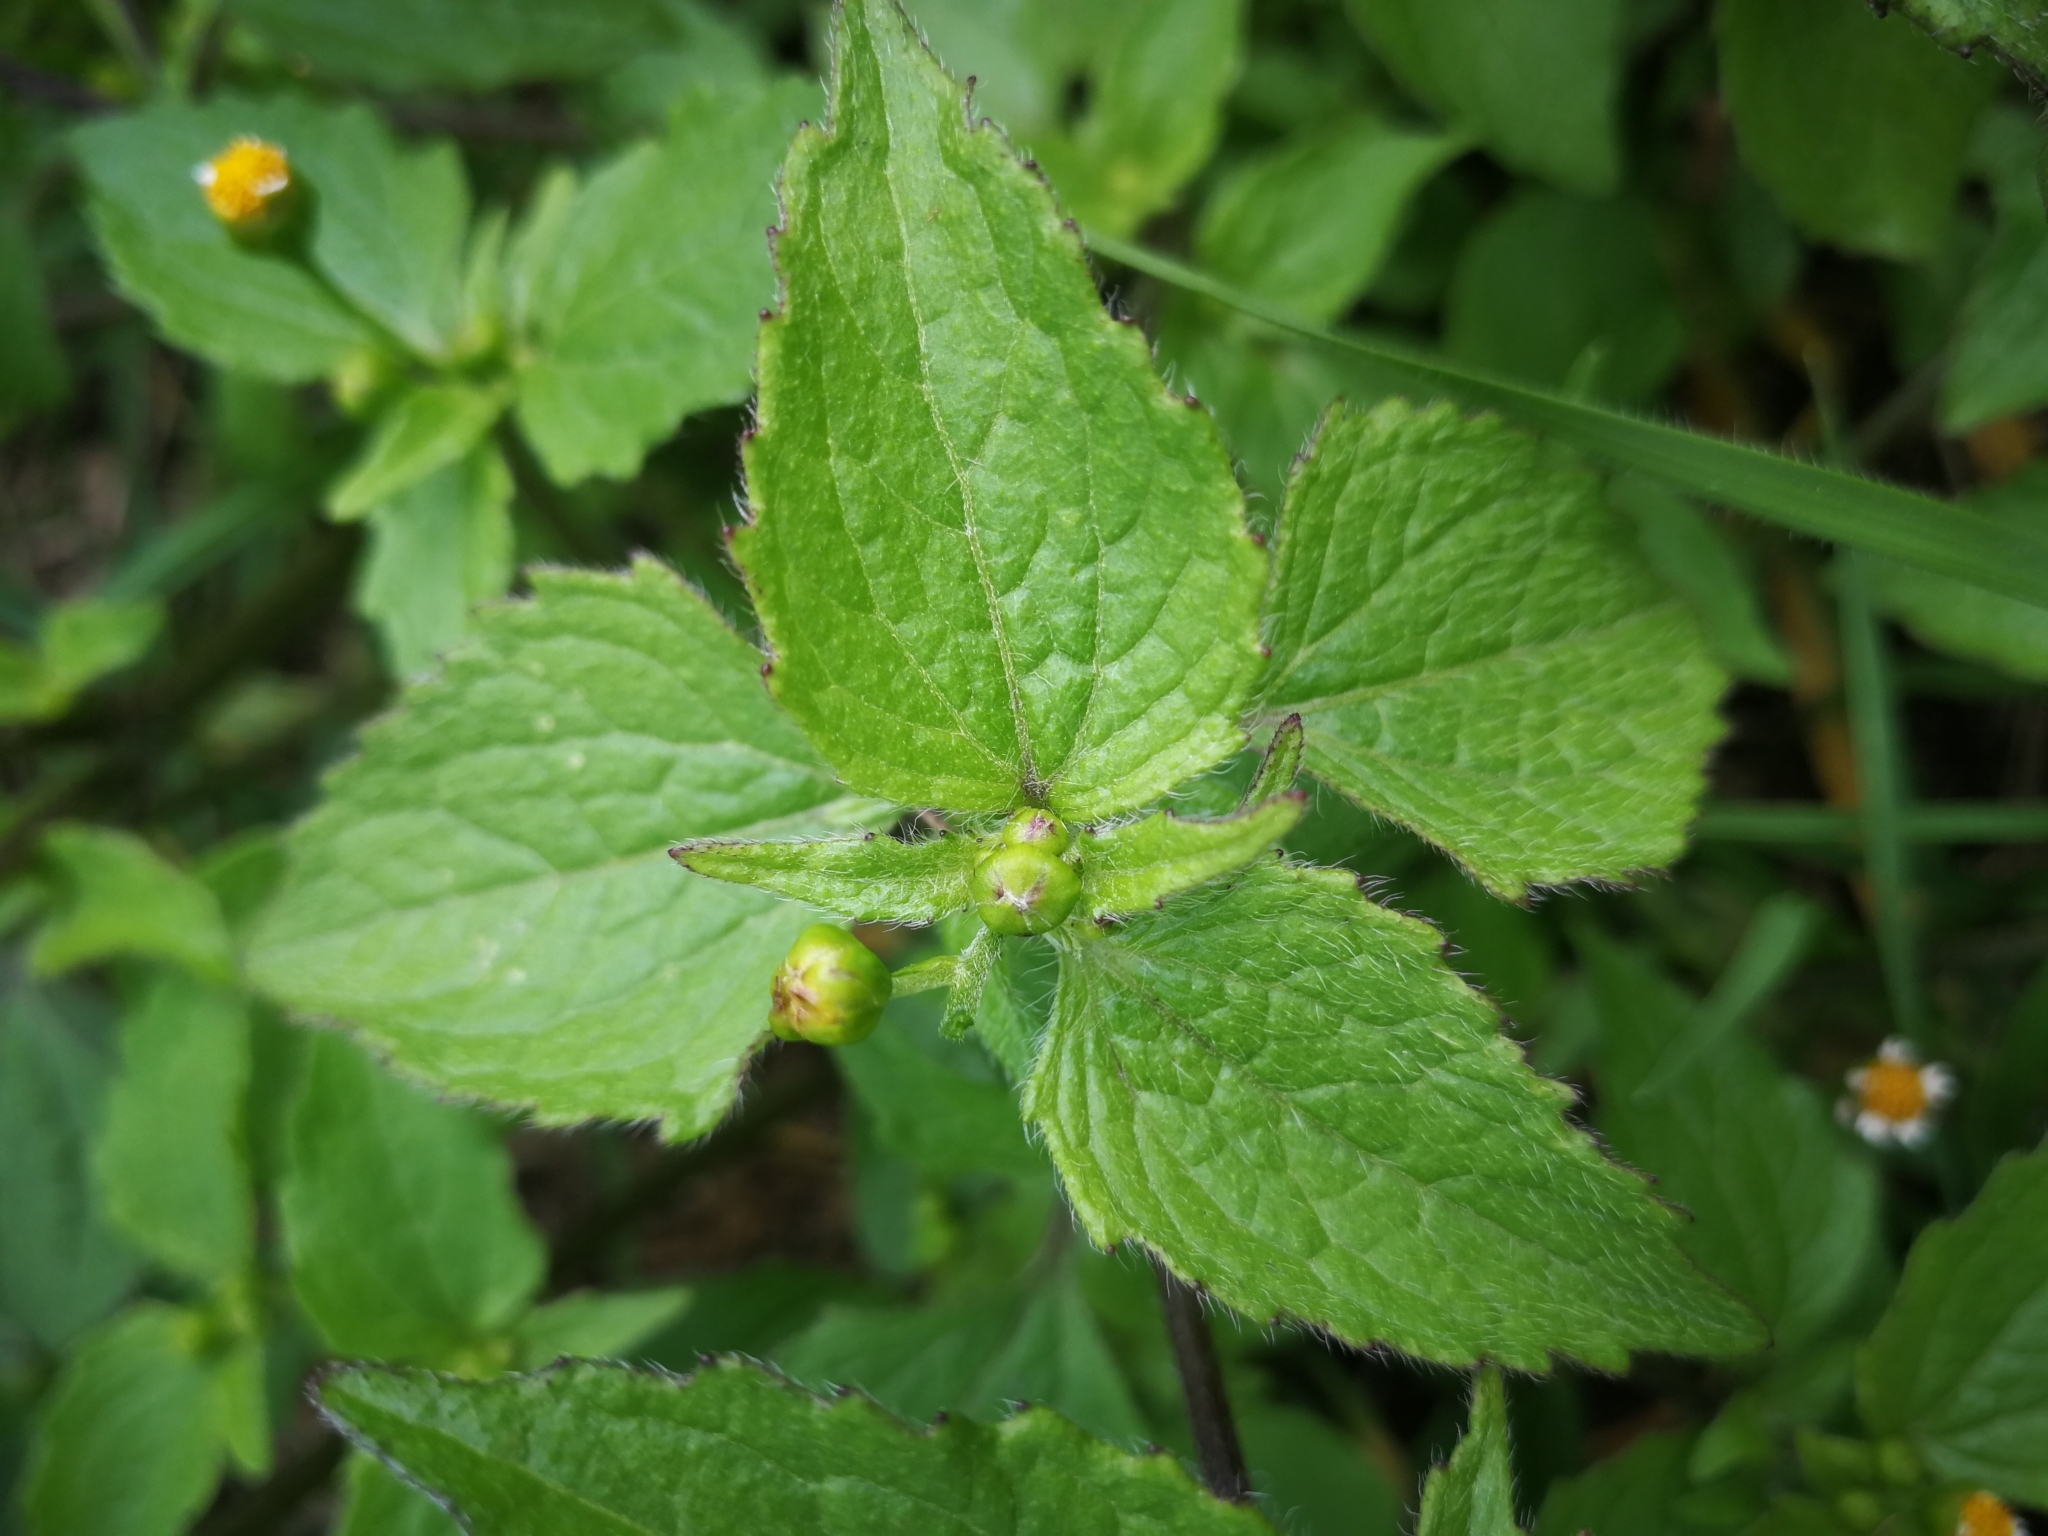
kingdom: Plantae
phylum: Tracheophyta
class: Magnoliopsida
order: Asterales
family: Asteraceae
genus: Galinsoga
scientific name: Galinsoga parviflora
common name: Gallant soldier
